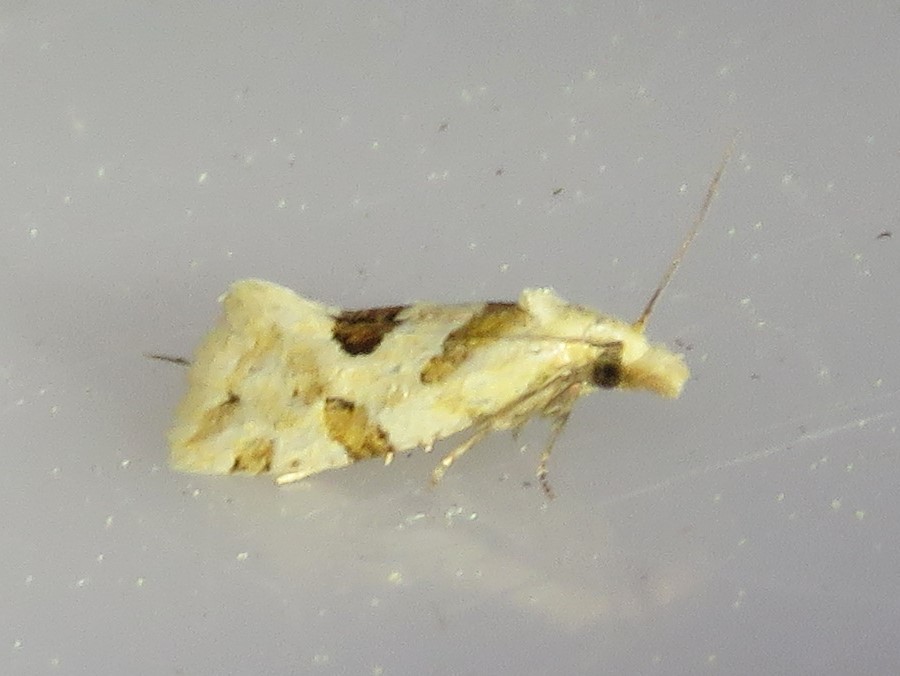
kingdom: Animalia
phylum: Arthropoda
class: Insecta
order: Lepidoptera
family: Tortricidae
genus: Aethes
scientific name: Aethes razowskii
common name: Razowski's aethes moth
